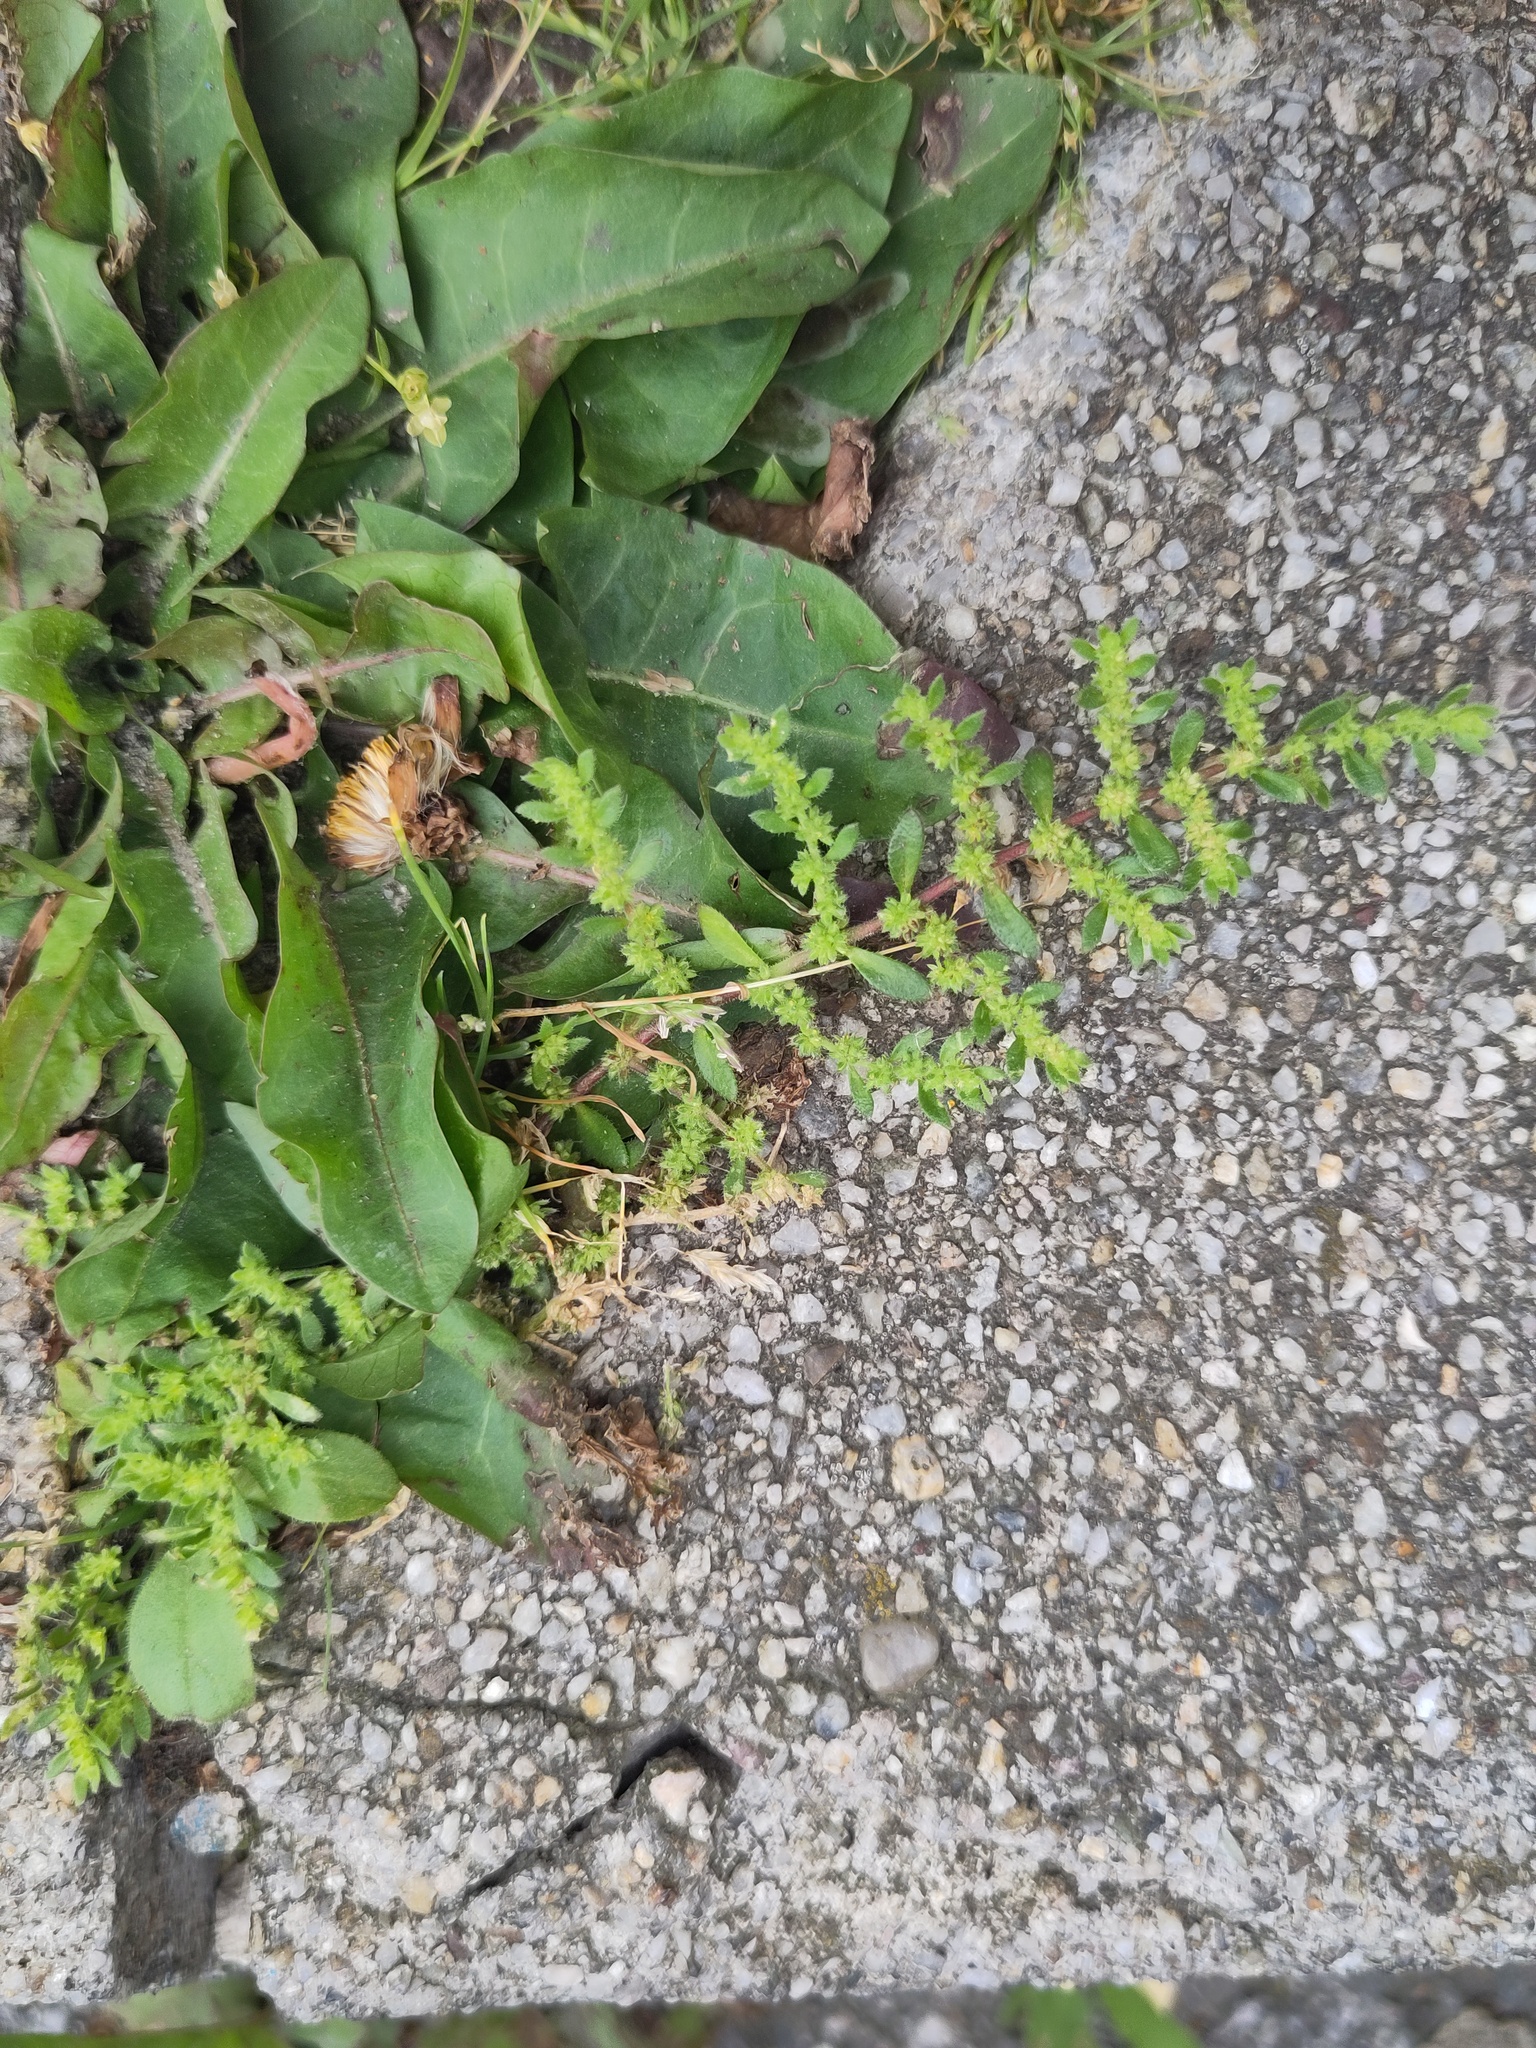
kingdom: Plantae
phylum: Tracheophyta
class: Magnoliopsida
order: Caryophyllales
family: Caryophyllaceae
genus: Herniaria
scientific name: Herniaria hirsuta
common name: Hairy rupturewort
